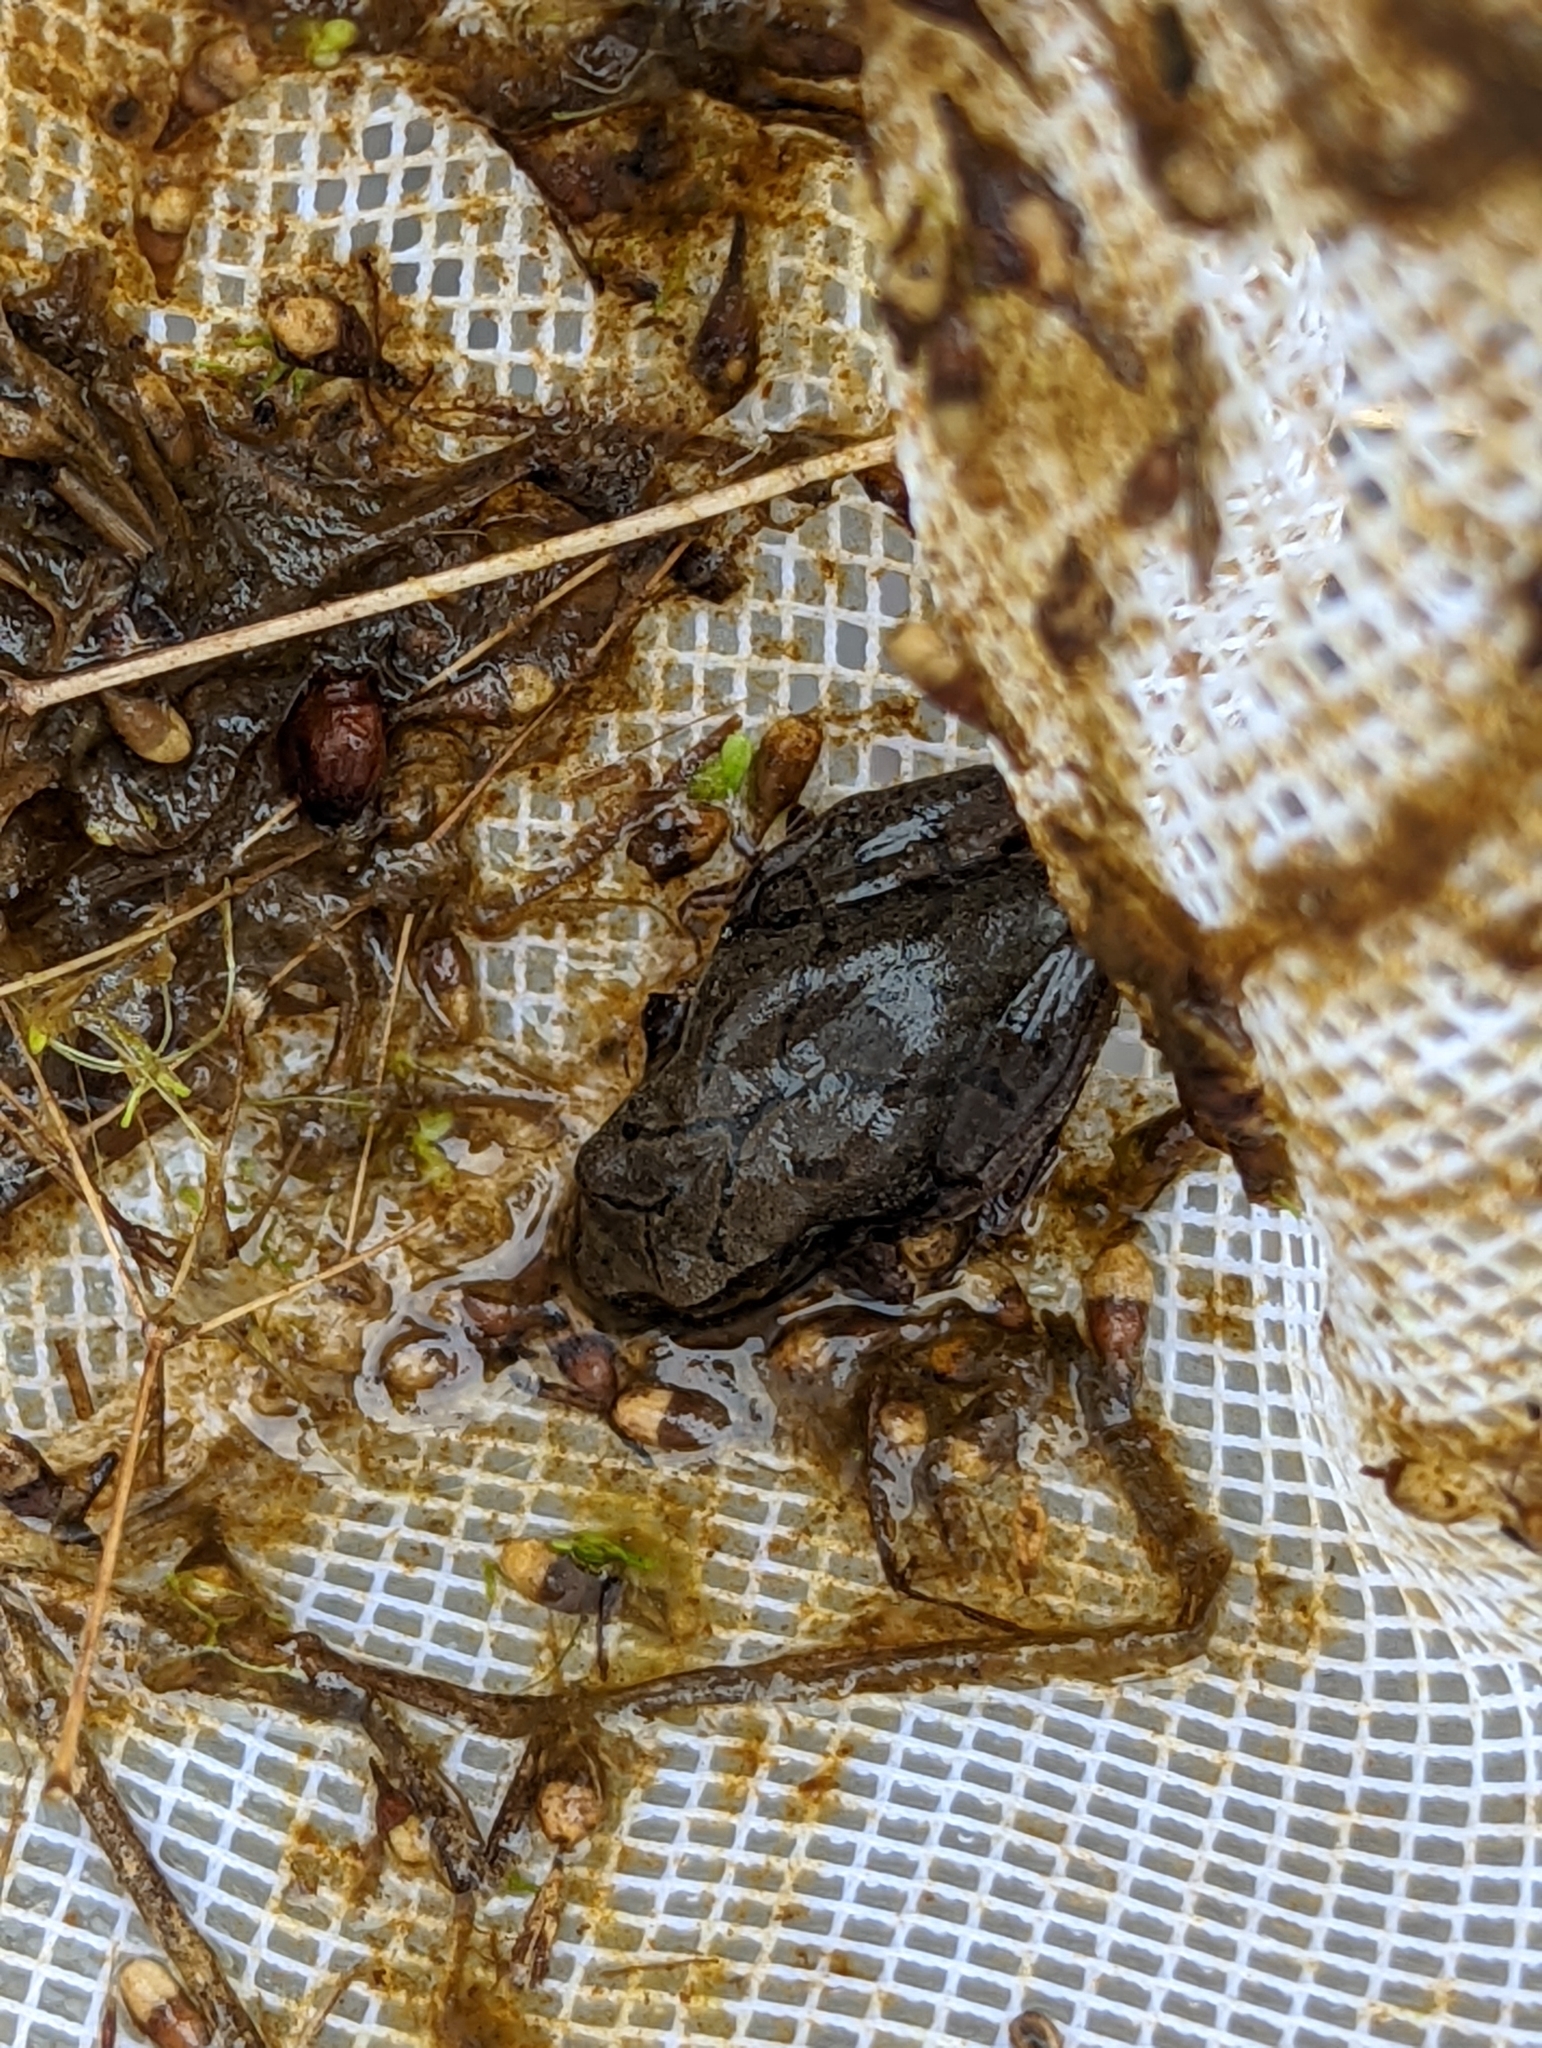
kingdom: Animalia
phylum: Chordata
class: Amphibia
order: Anura
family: Hylidae
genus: Pseudacris
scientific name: Pseudacris crucifer
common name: Spring peeper
